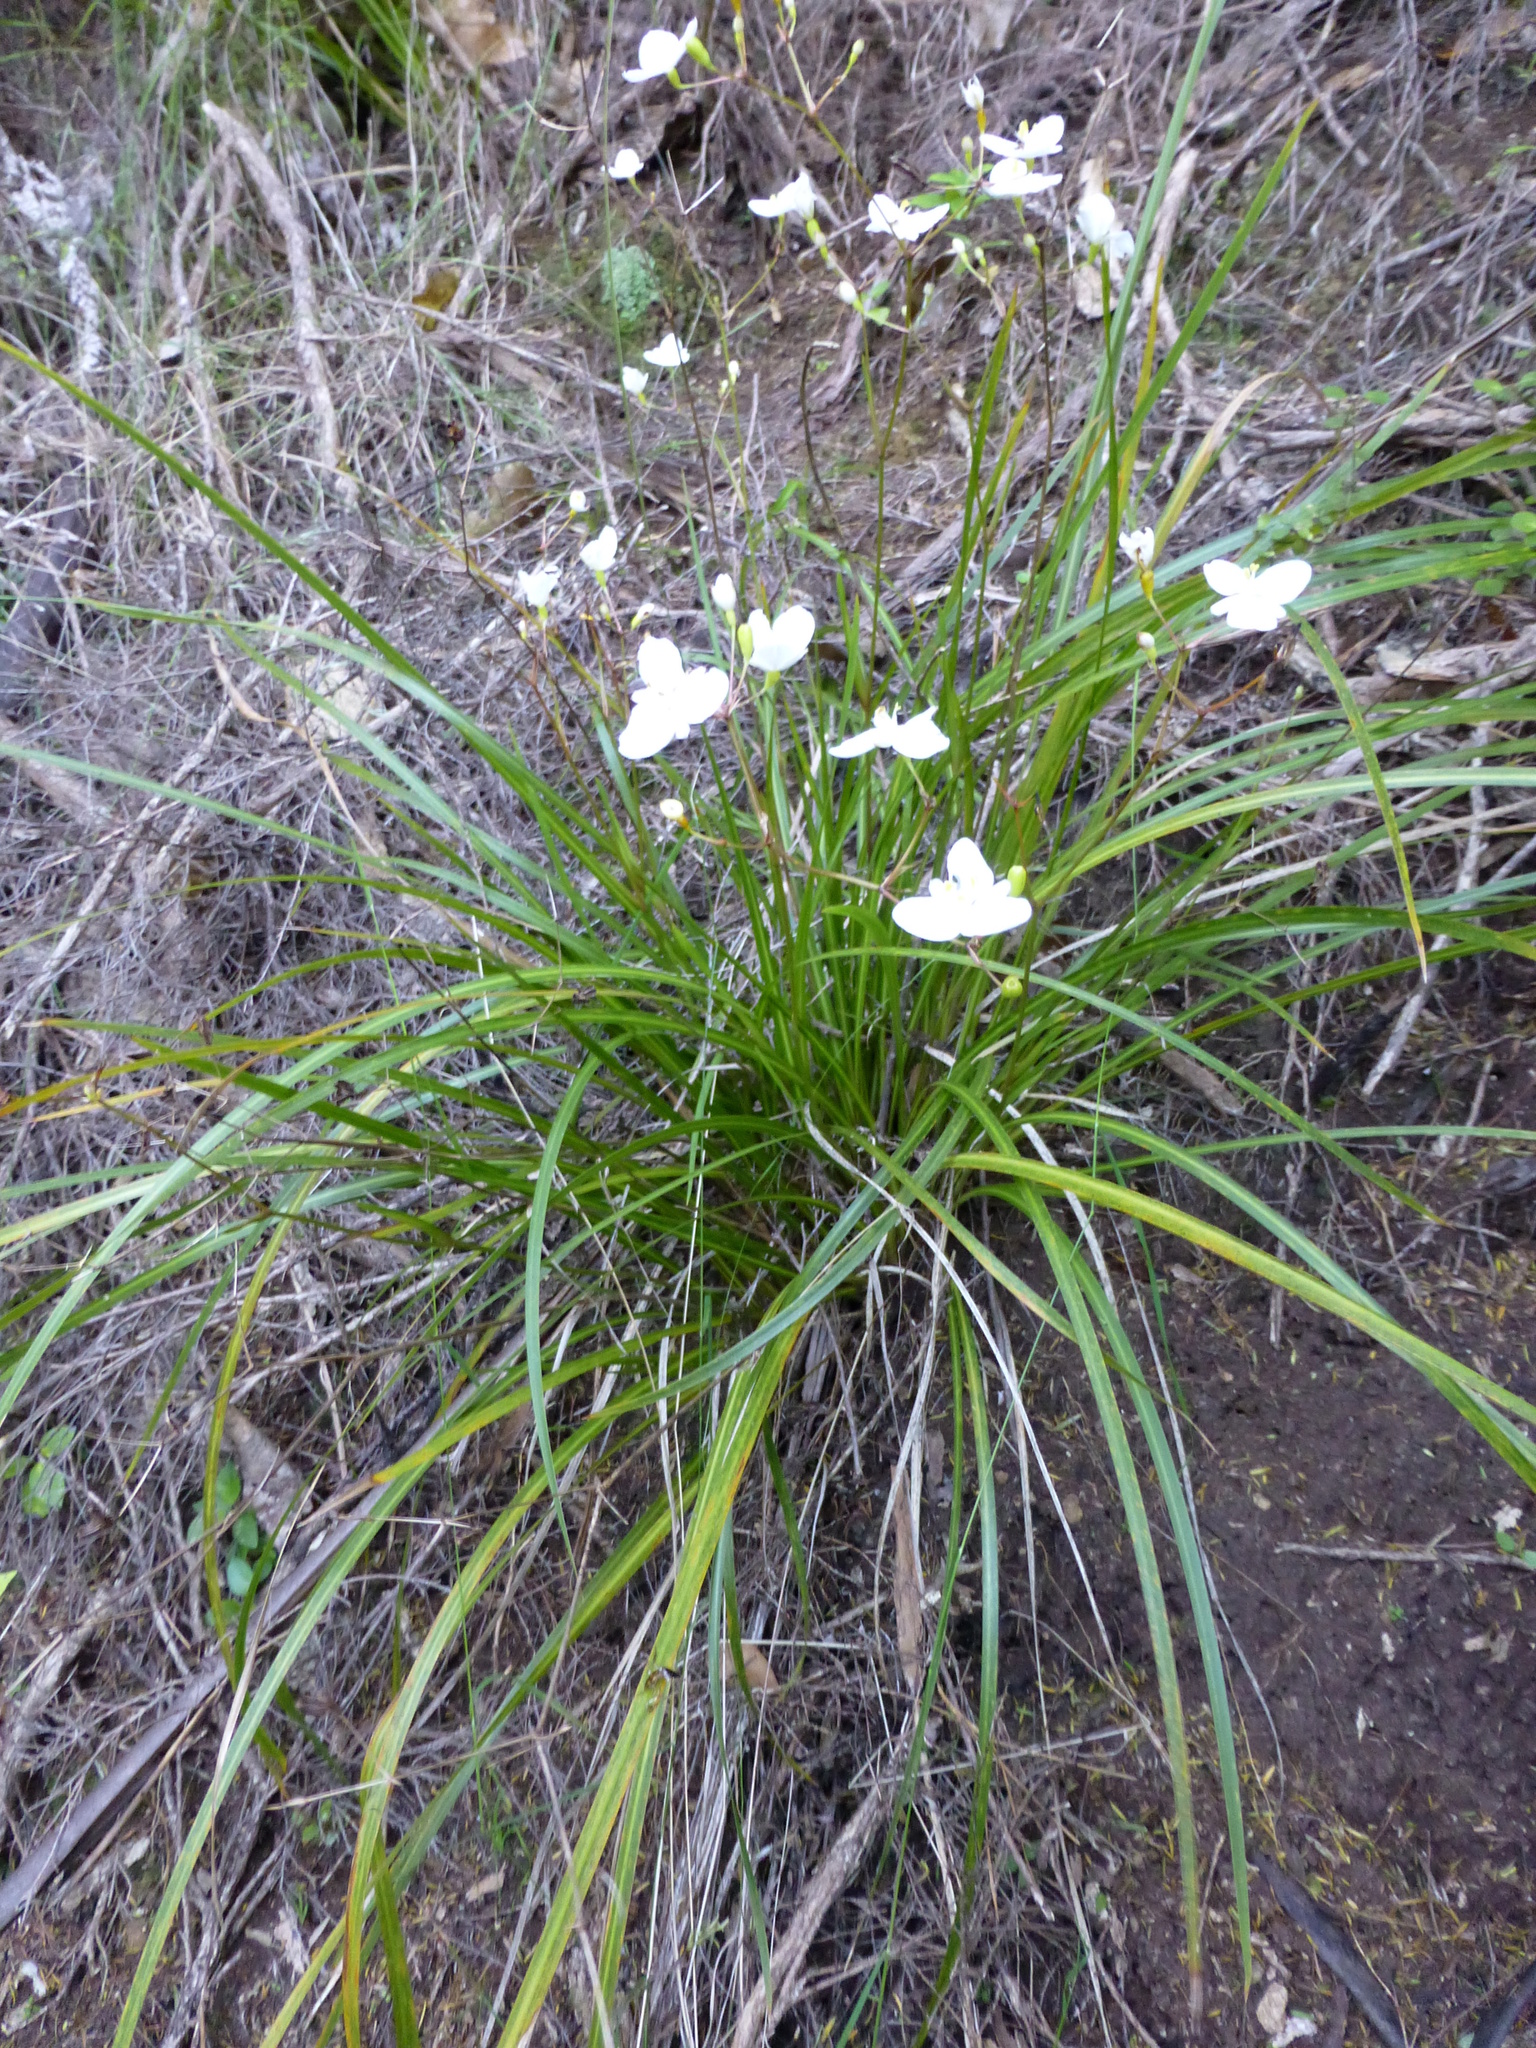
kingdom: Plantae
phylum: Tracheophyta
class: Liliopsida
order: Asparagales
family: Iridaceae
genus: Libertia
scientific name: Libertia grandiflora
